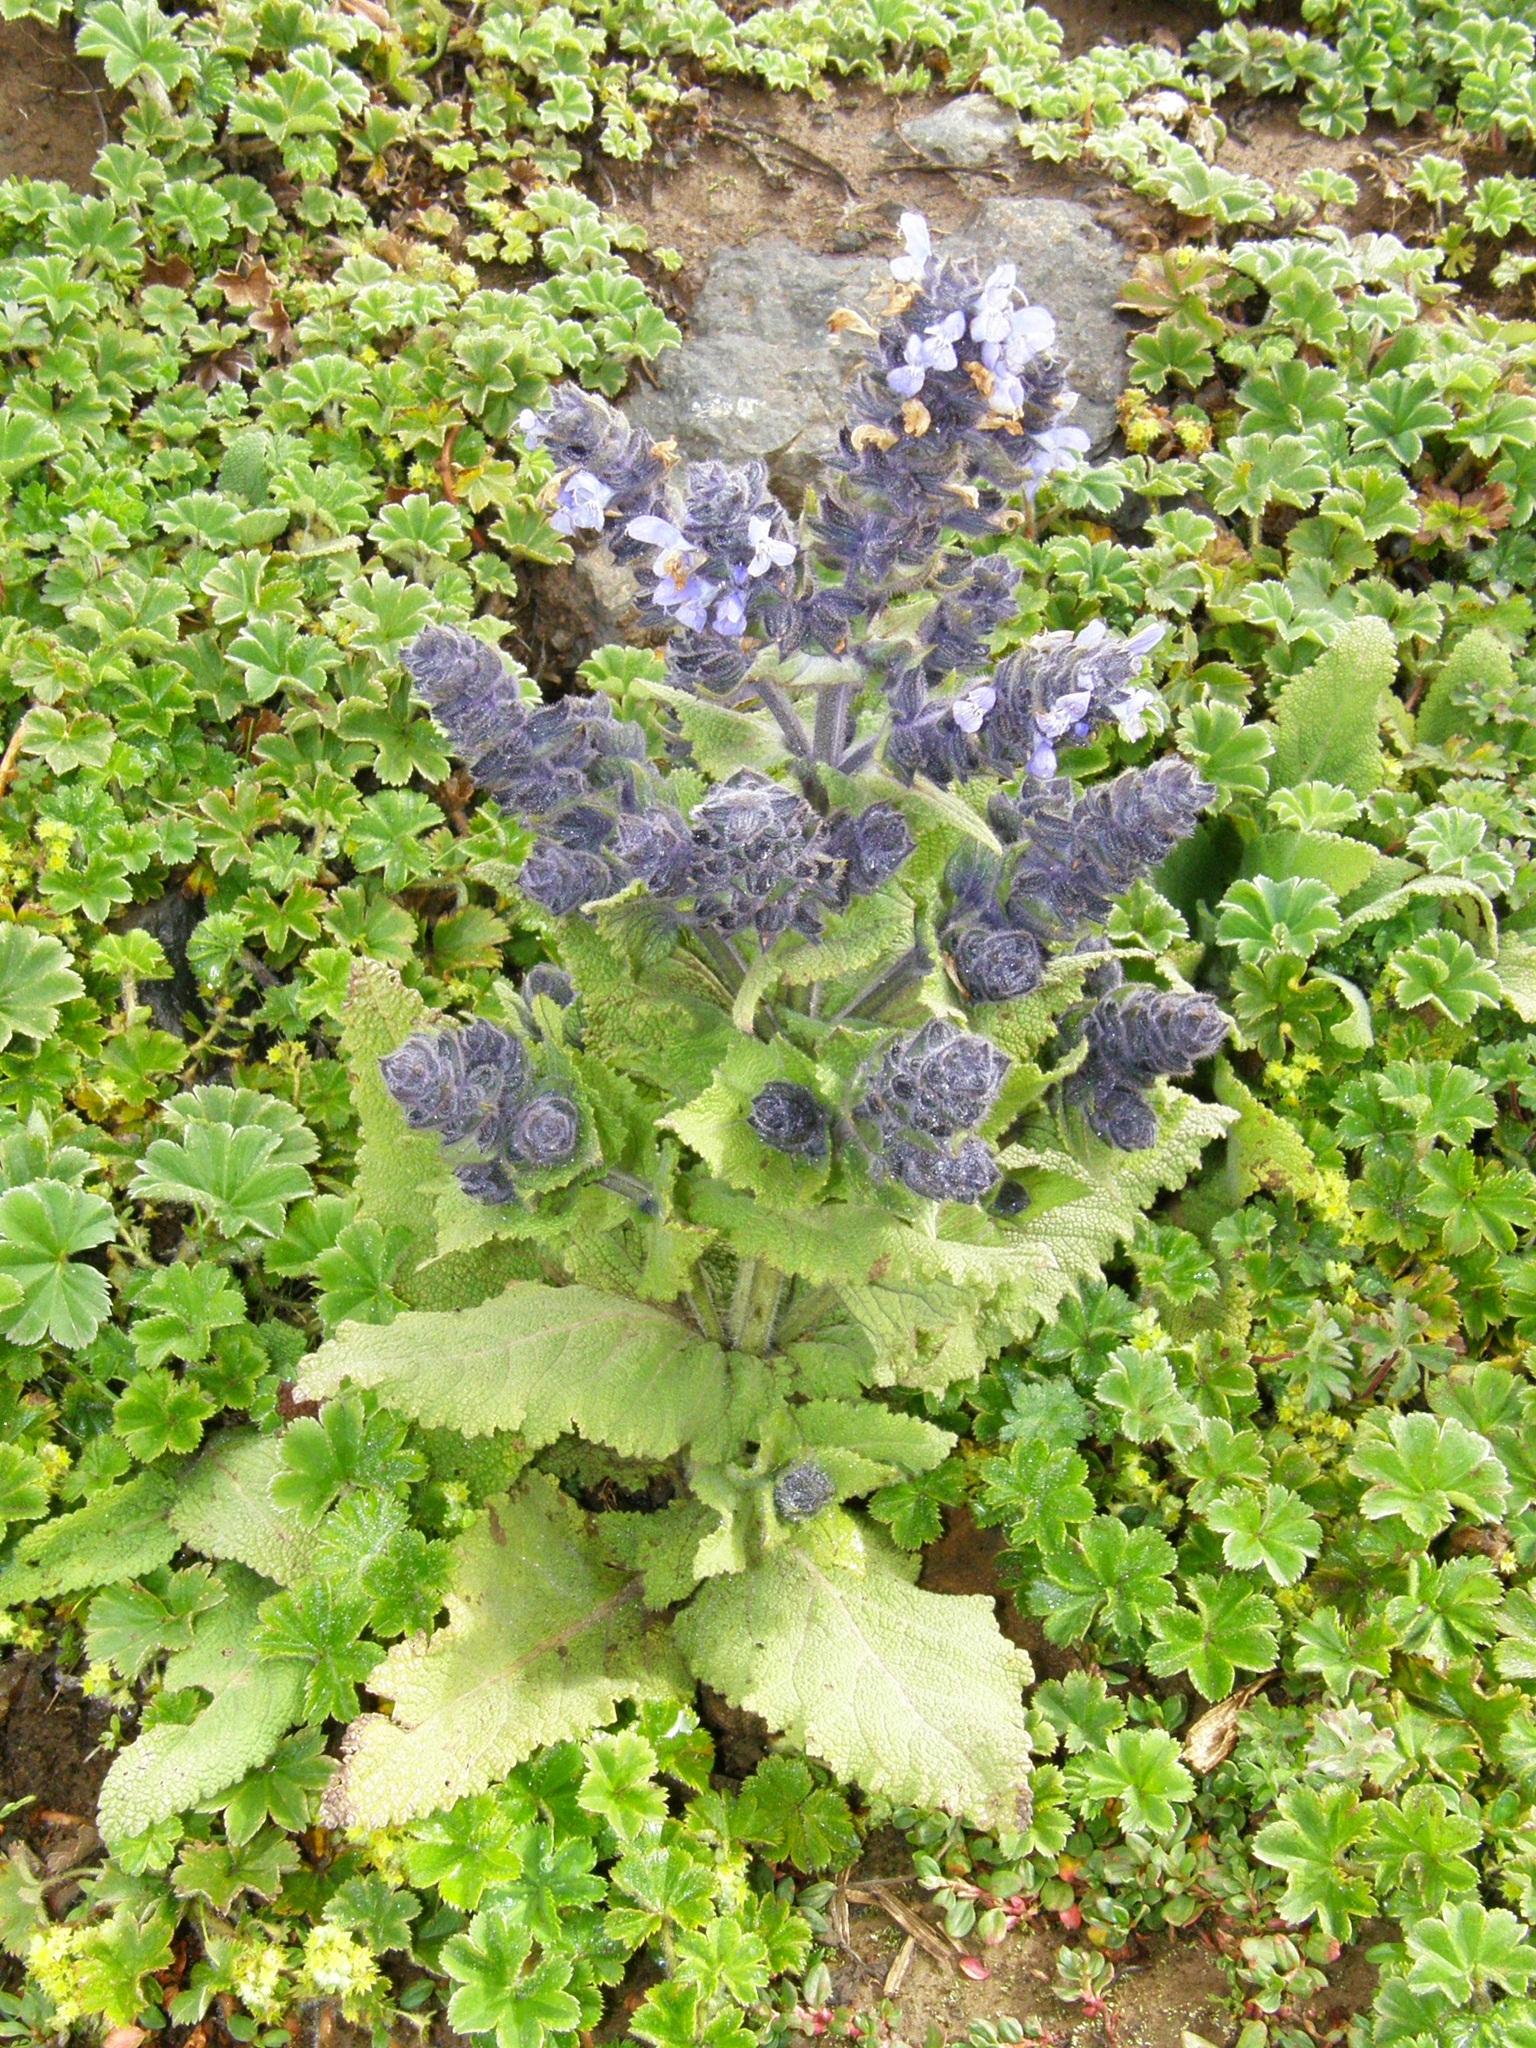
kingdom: Plantae
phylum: Tracheophyta
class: Magnoliopsida
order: Lamiales
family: Lamiaceae
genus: Salvia
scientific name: Salvia merjamie
